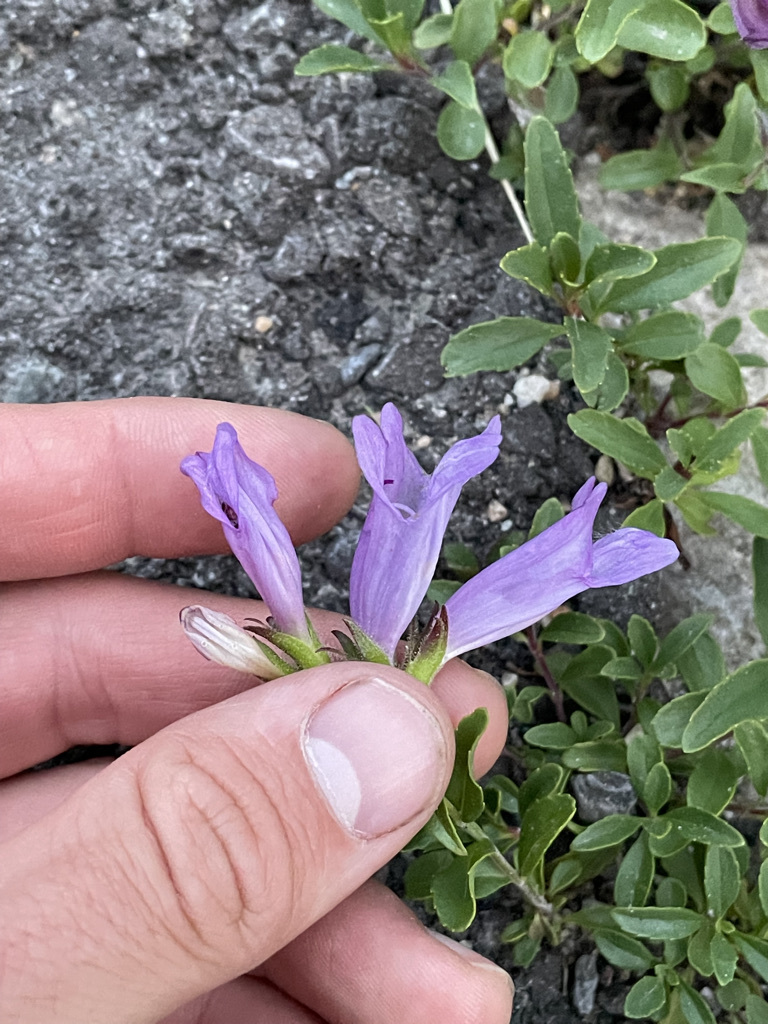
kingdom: Plantae
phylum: Tracheophyta
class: Magnoliopsida
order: Lamiales
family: Plantaginaceae
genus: Penstemon
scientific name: Penstemon ellipticus
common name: Alpine beardtongue
